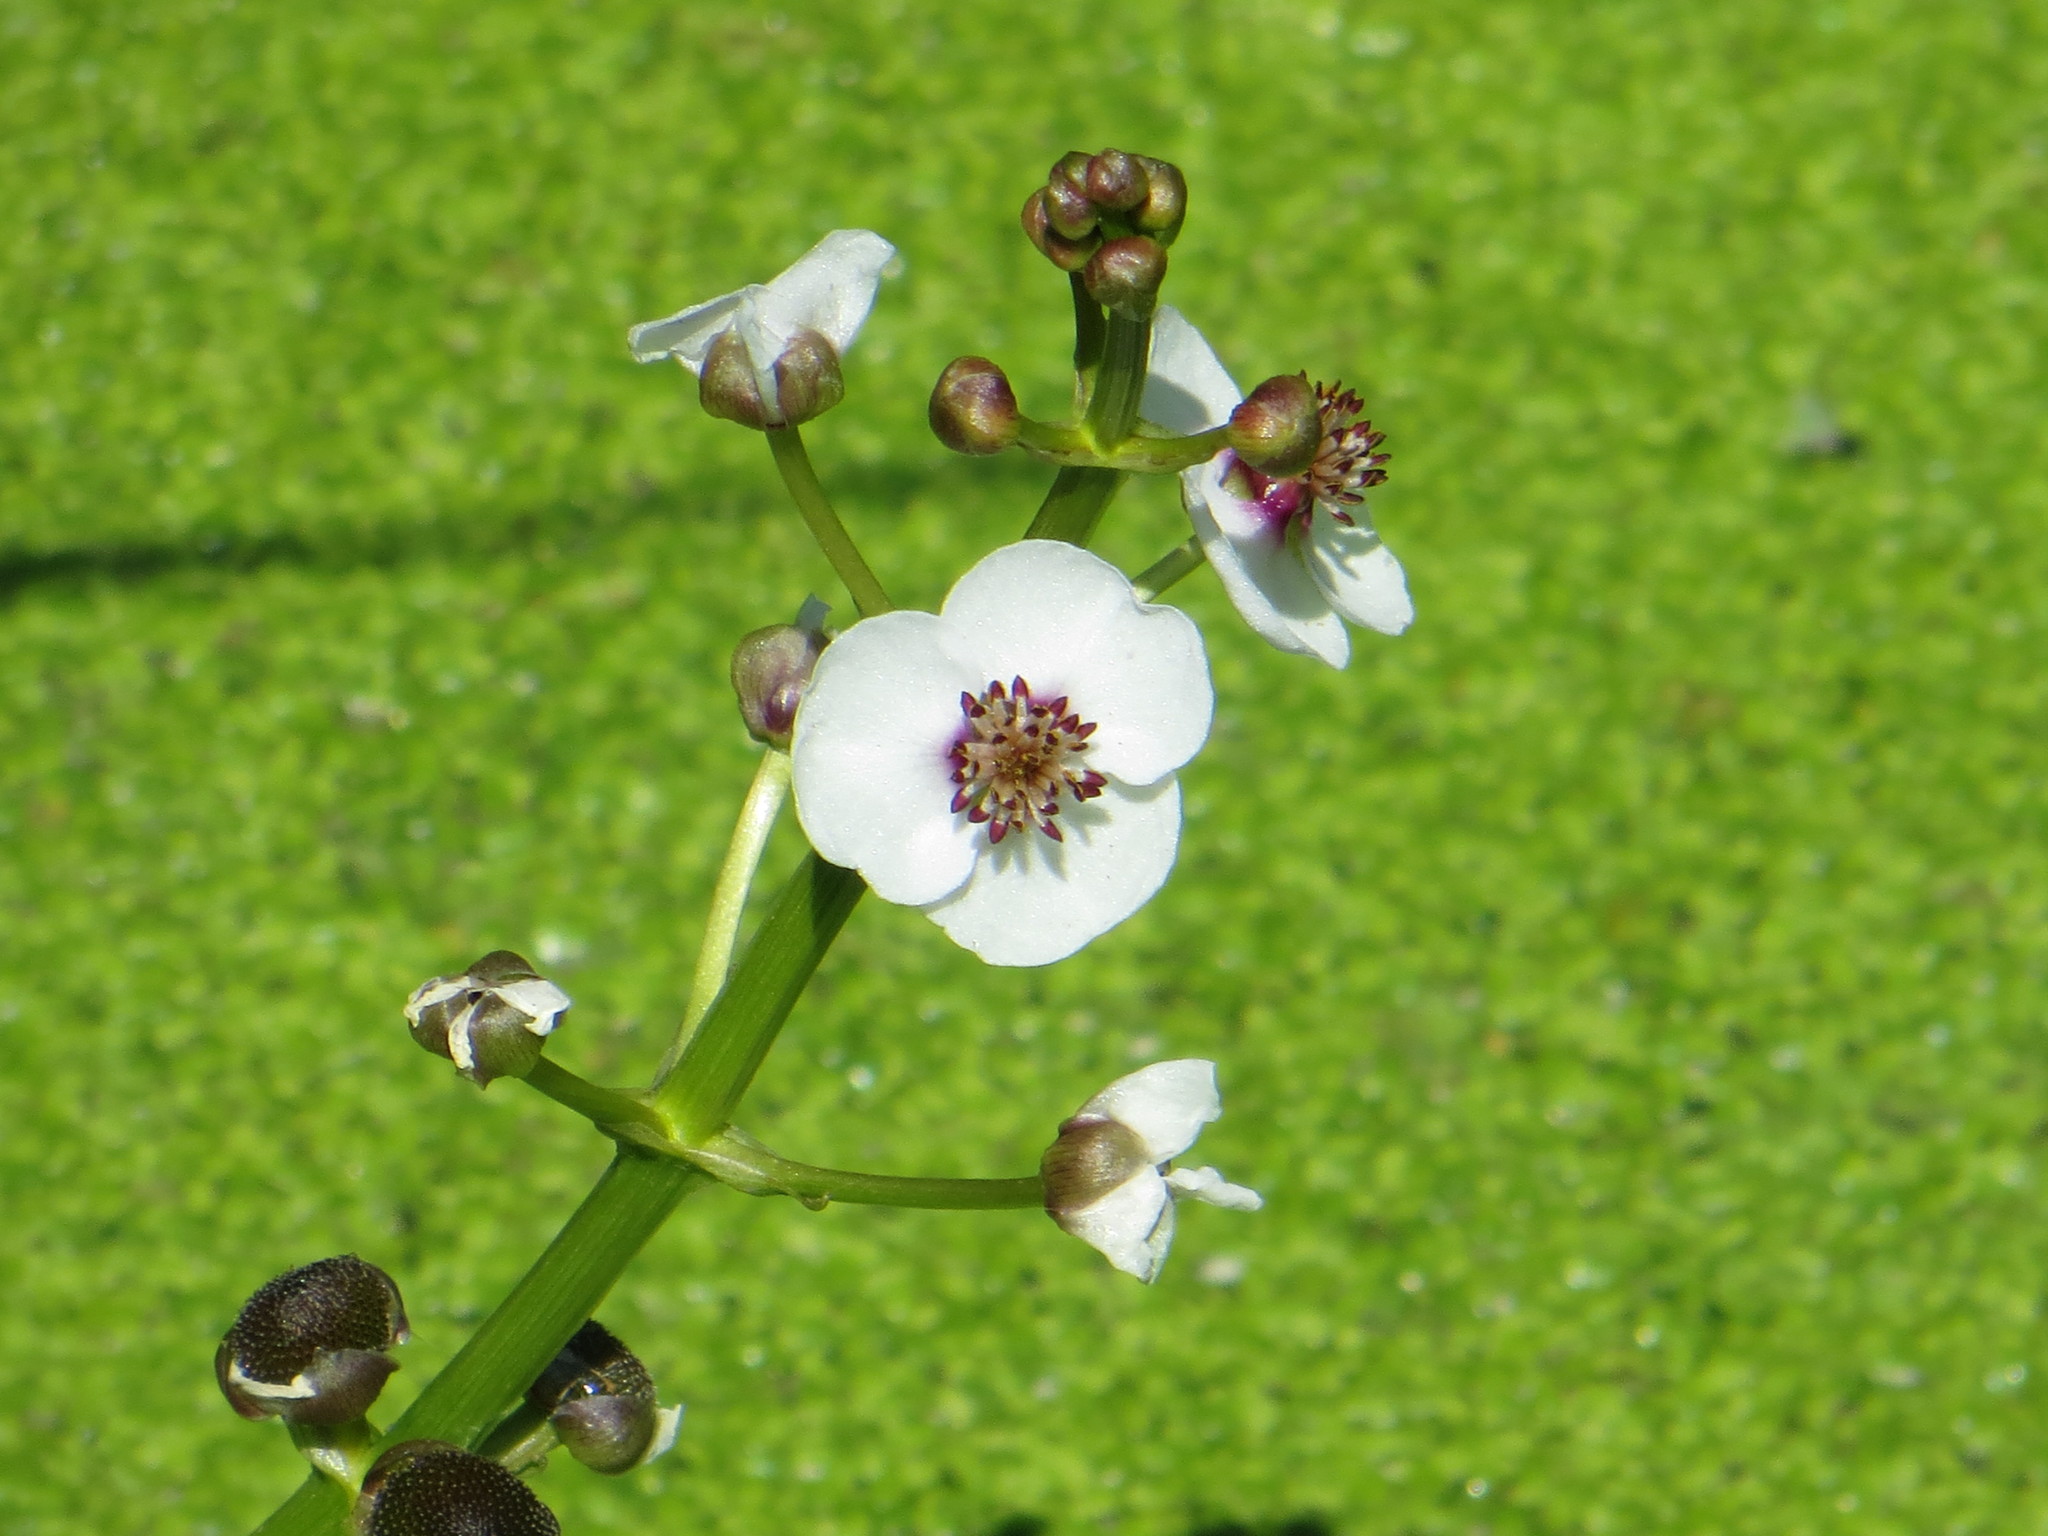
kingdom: Plantae
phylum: Tracheophyta
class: Liliopsida
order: Alismatales
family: Alismataceae
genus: Sagittaria
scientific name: Sagittaria sagittifolia
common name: Arrowhead
